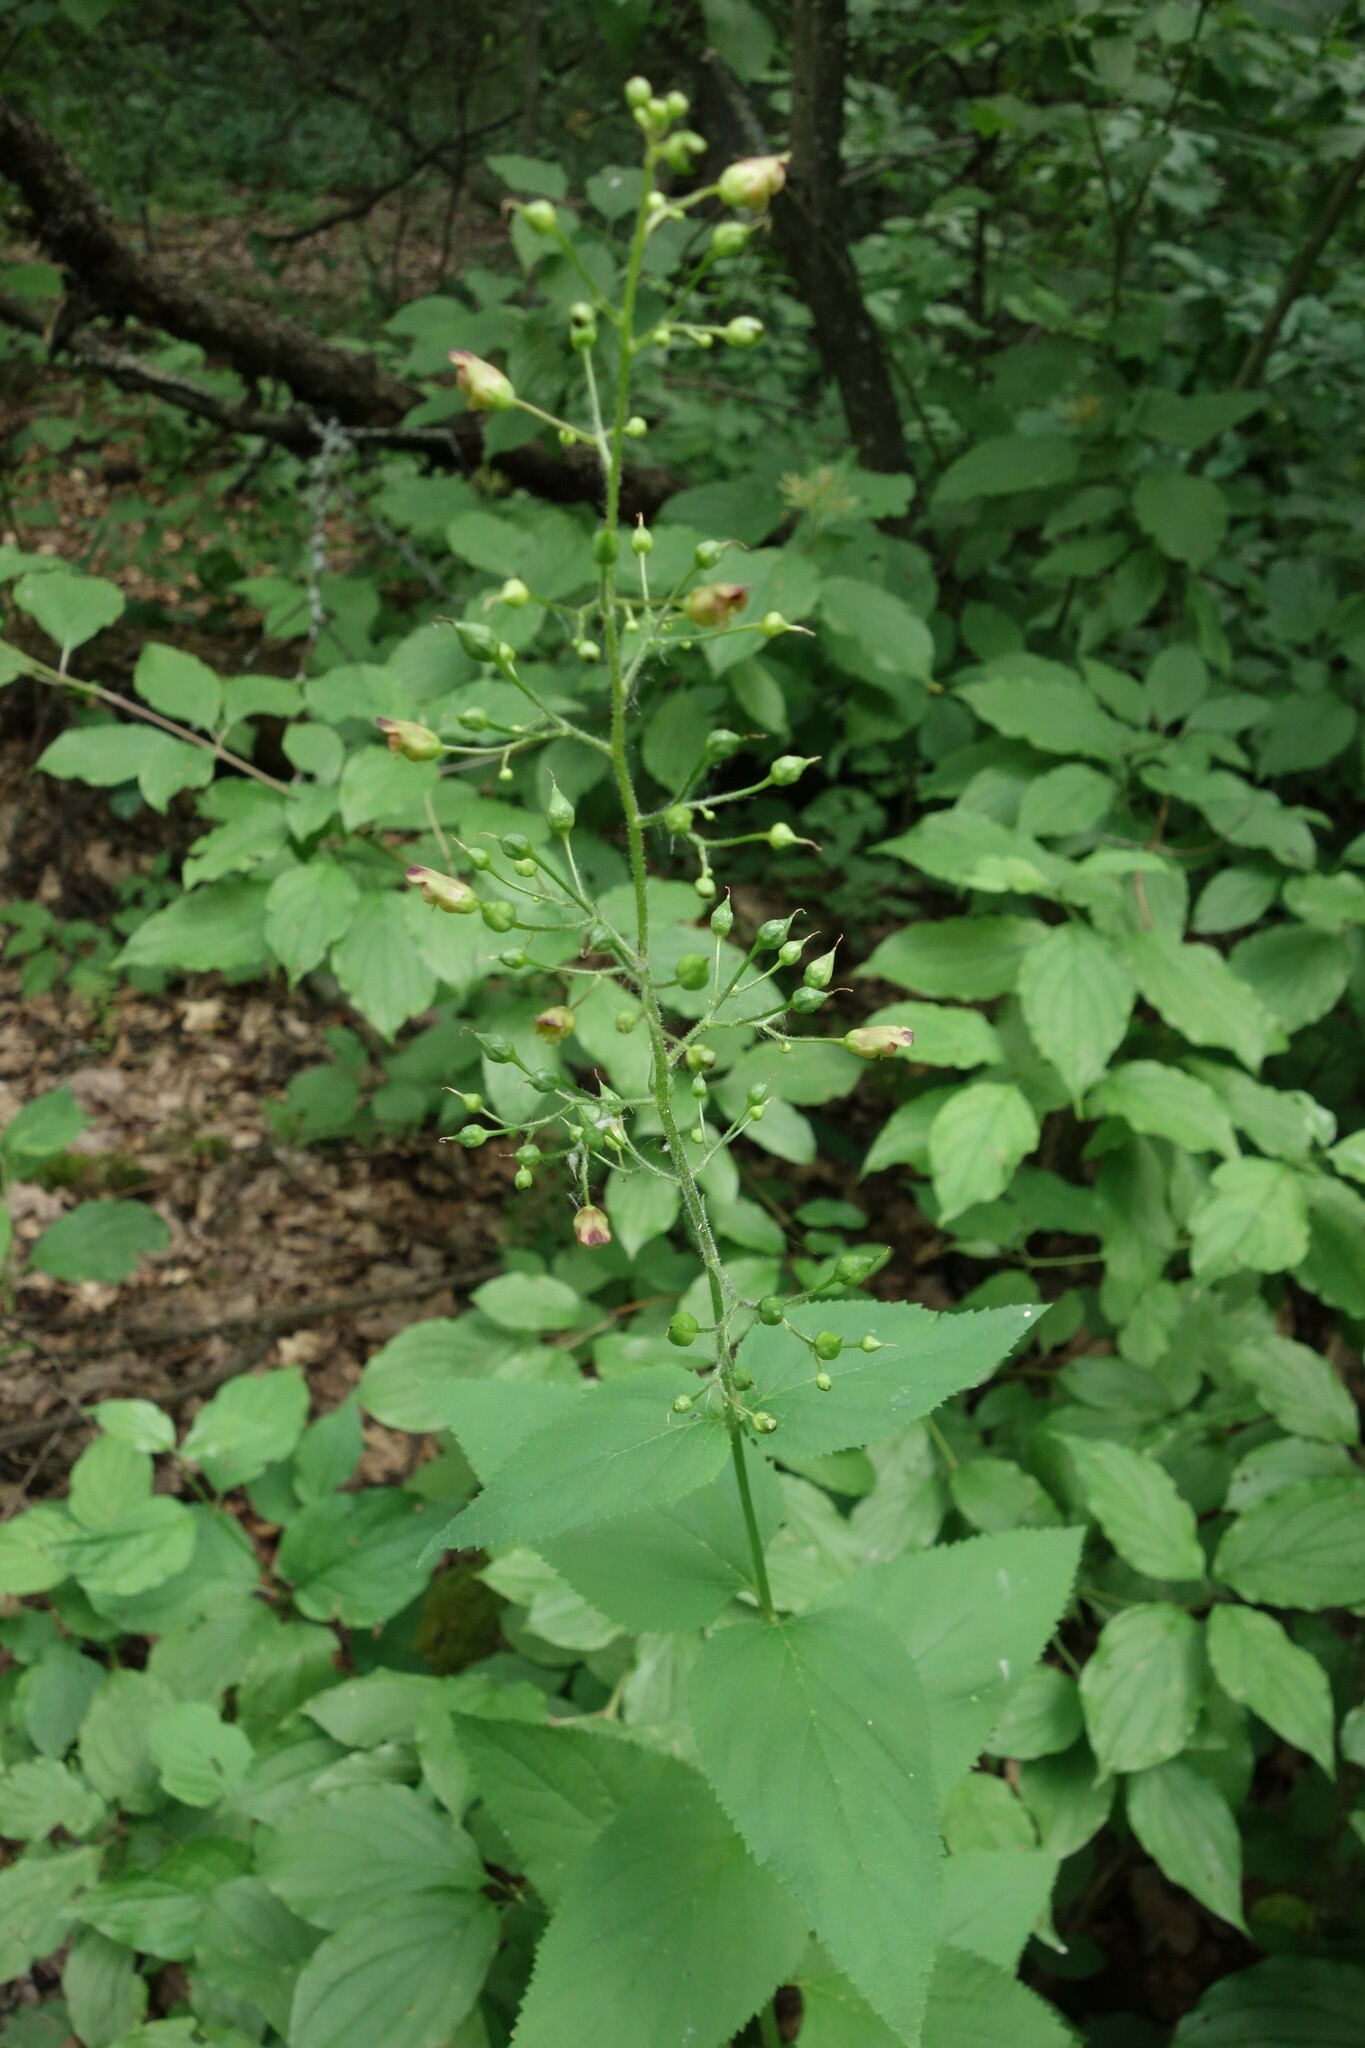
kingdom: Plantae
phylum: Tracheophyta
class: Magnoliopsida
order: Lamiales
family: Scrophulariaceae
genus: Scrophularia
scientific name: Scrophularia nodosa
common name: Common figwort
